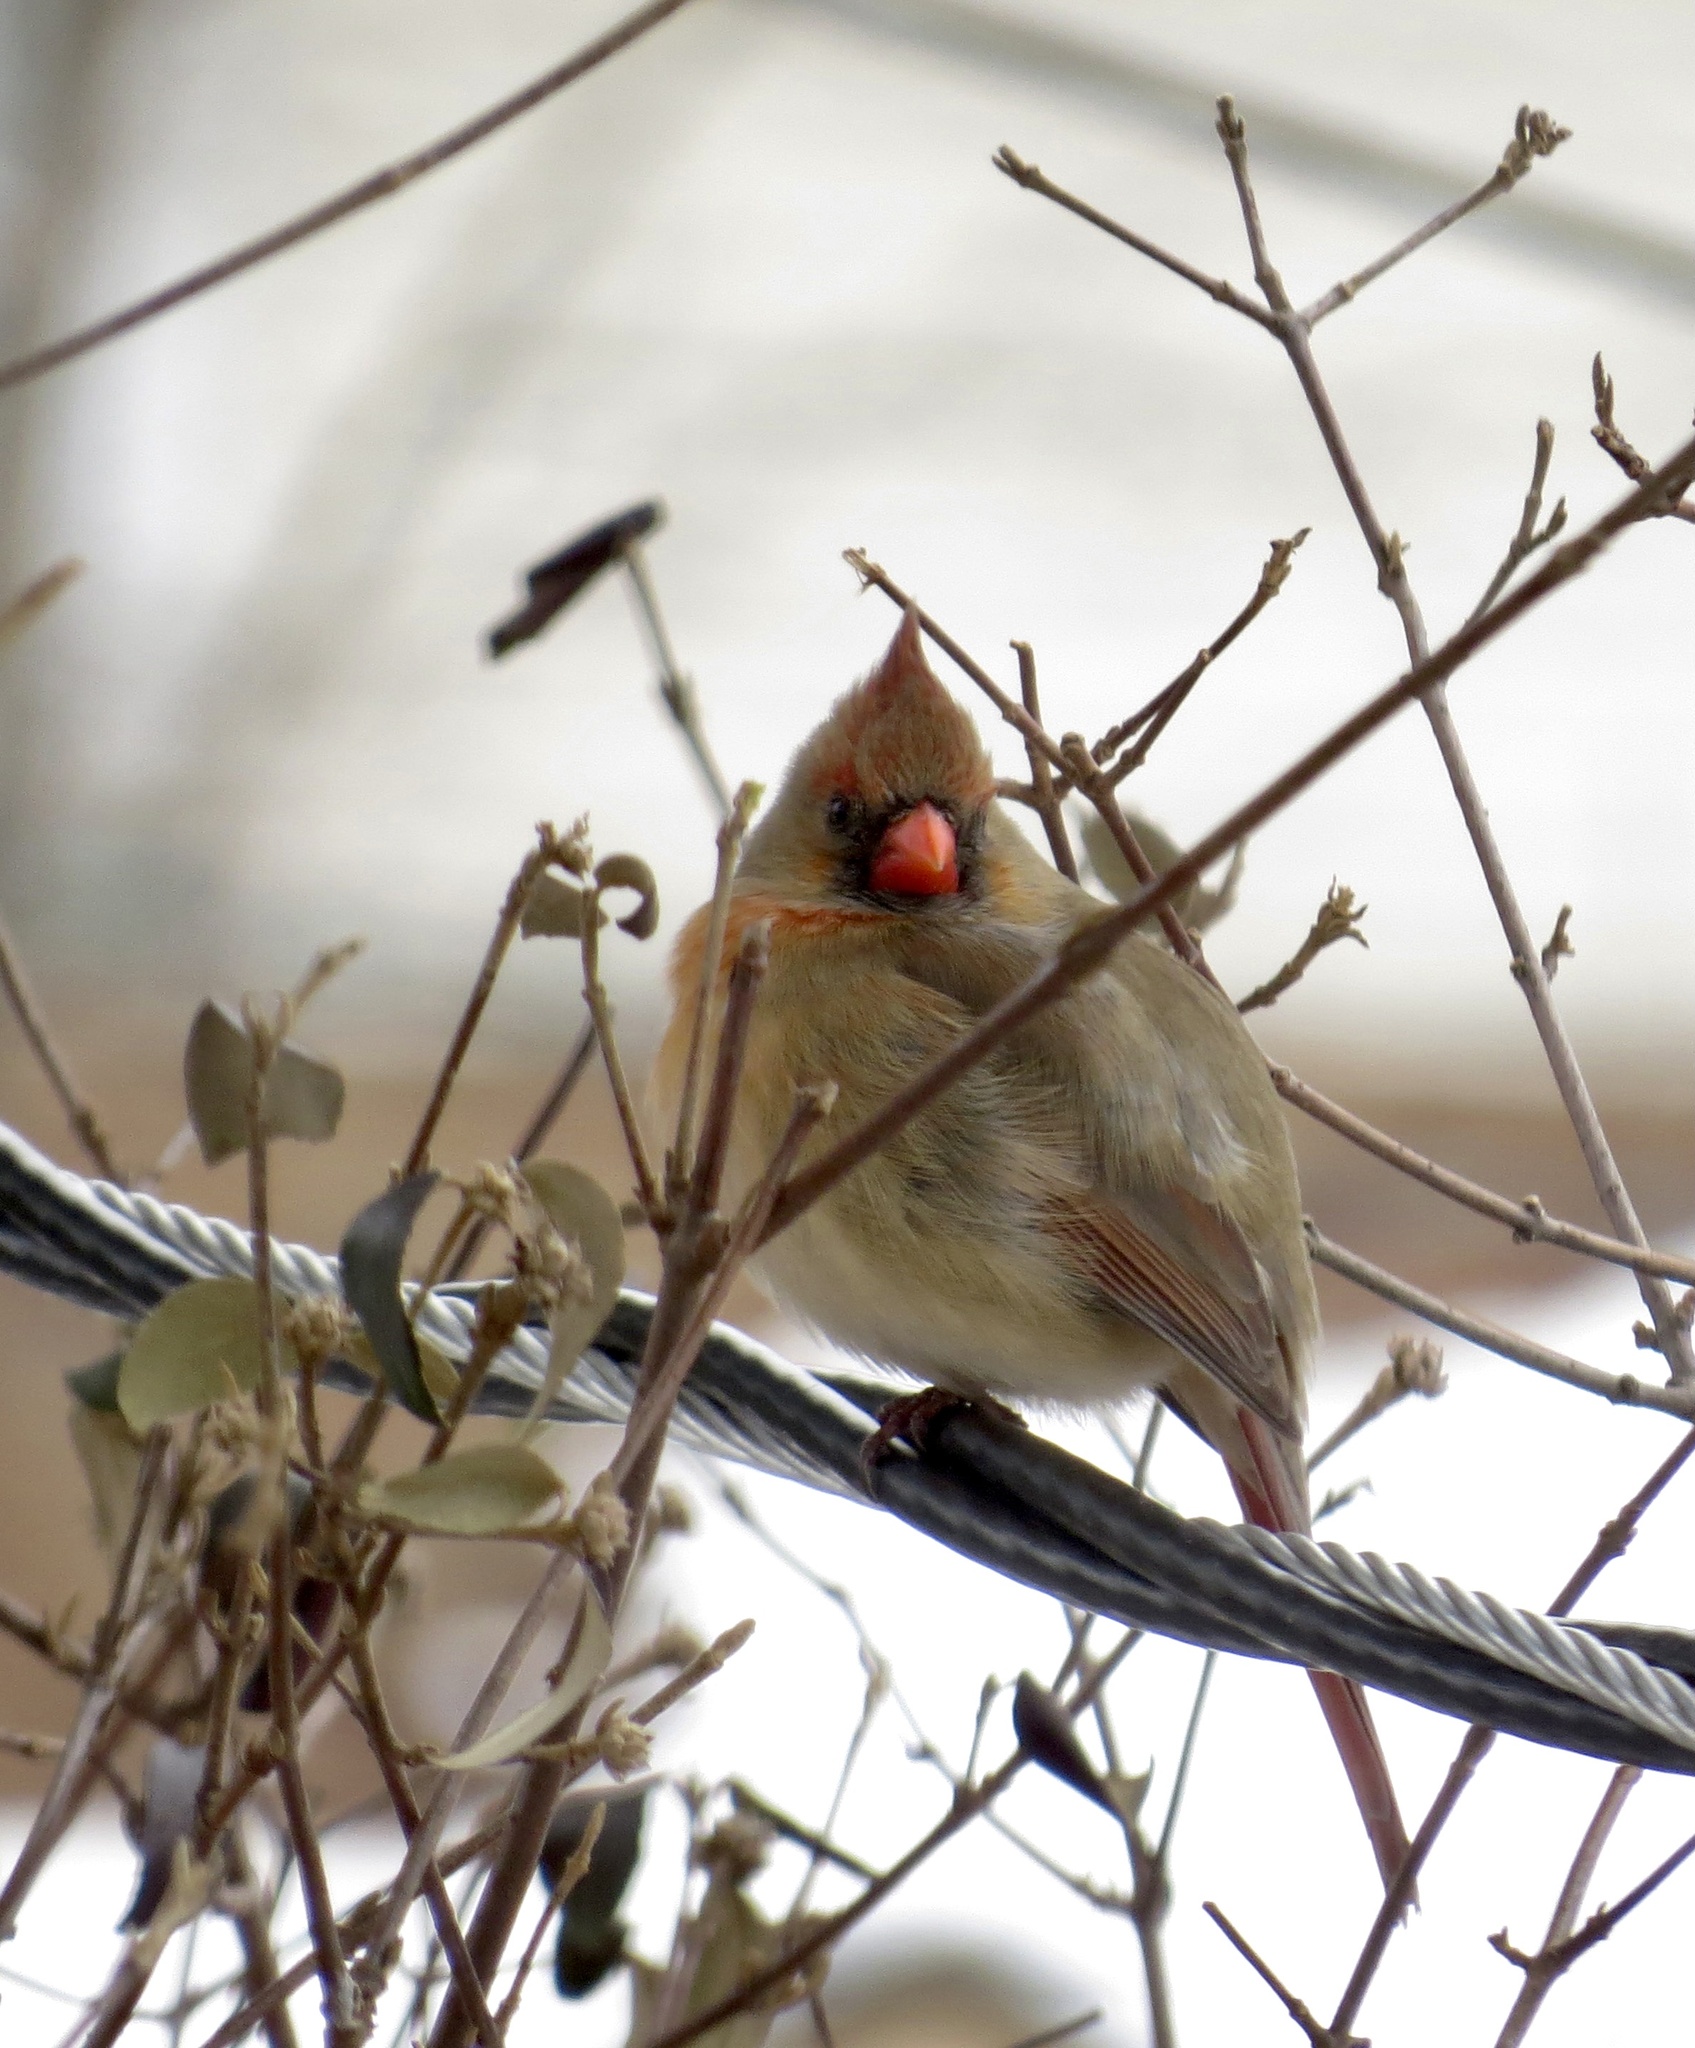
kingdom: Animalia
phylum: Chordata
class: Aves
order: Passeriformes
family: Cardinalidae
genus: Cardinalis
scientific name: Cardinalis cardinalis
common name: Northern cardinal
